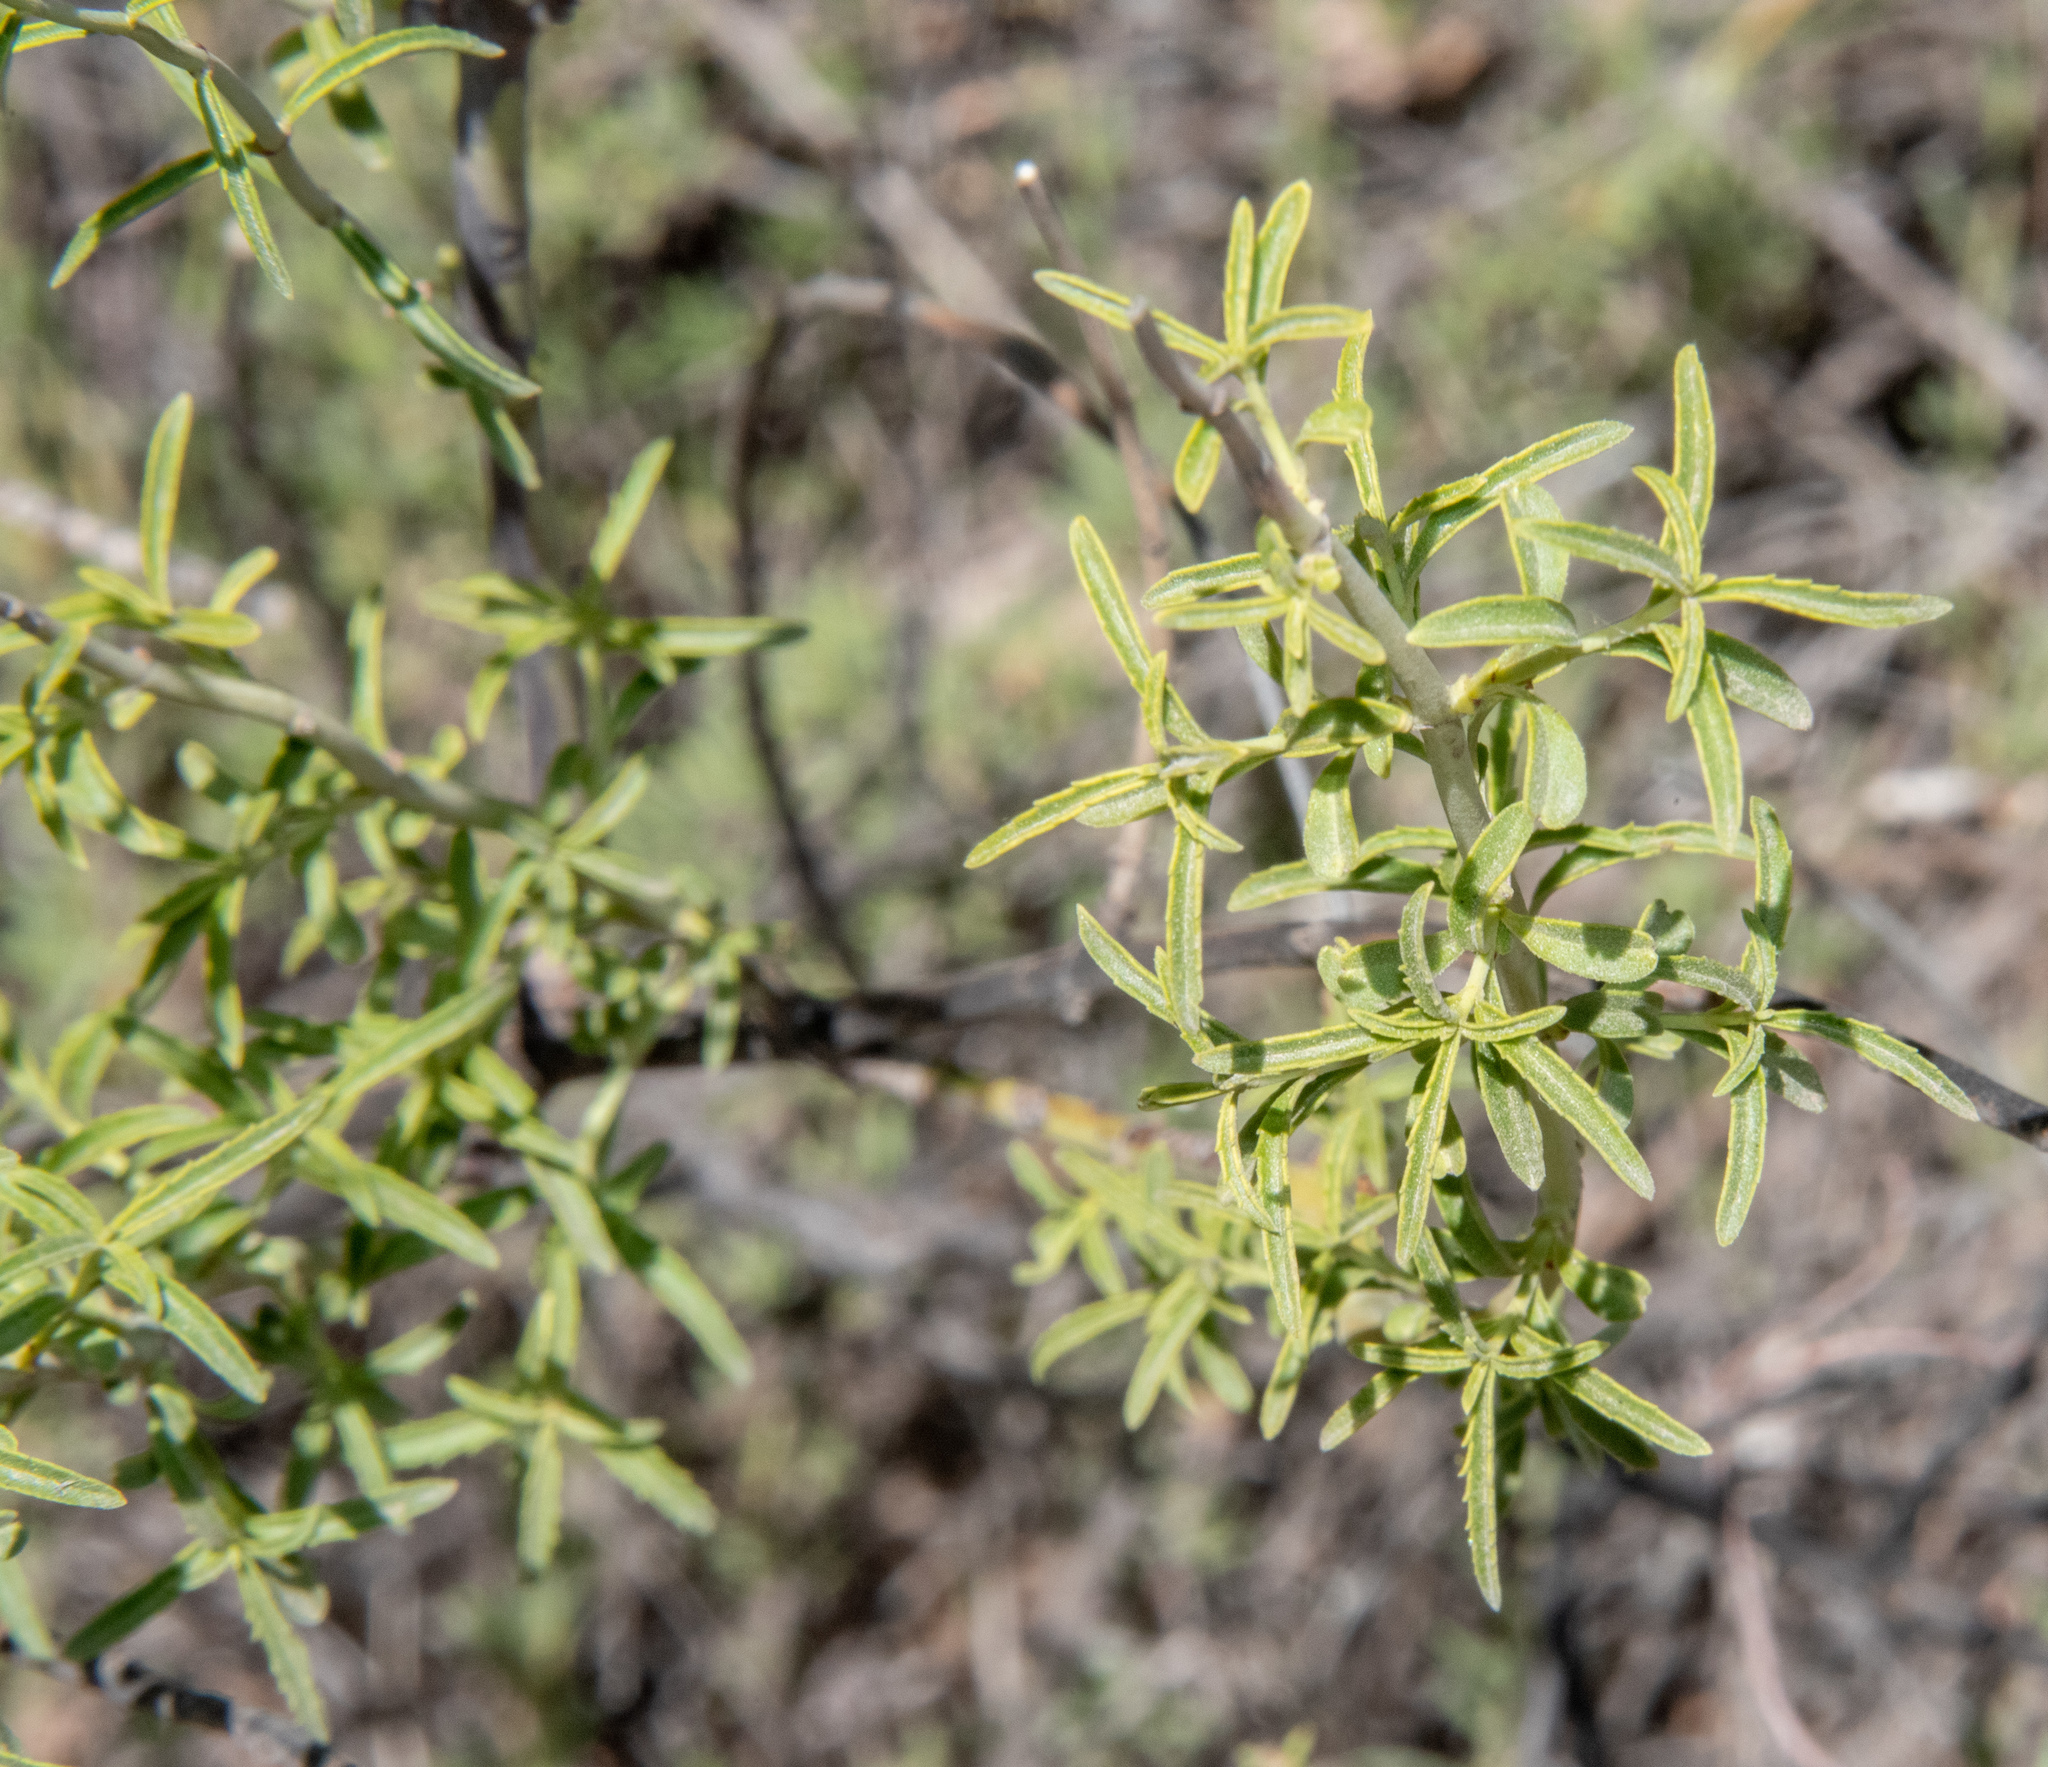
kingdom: Plantae
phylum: Tracheophyta
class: Magnoliopsida
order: Lamiales
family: Plantaginaceae
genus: Keckiella
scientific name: Keckiella breviflora
